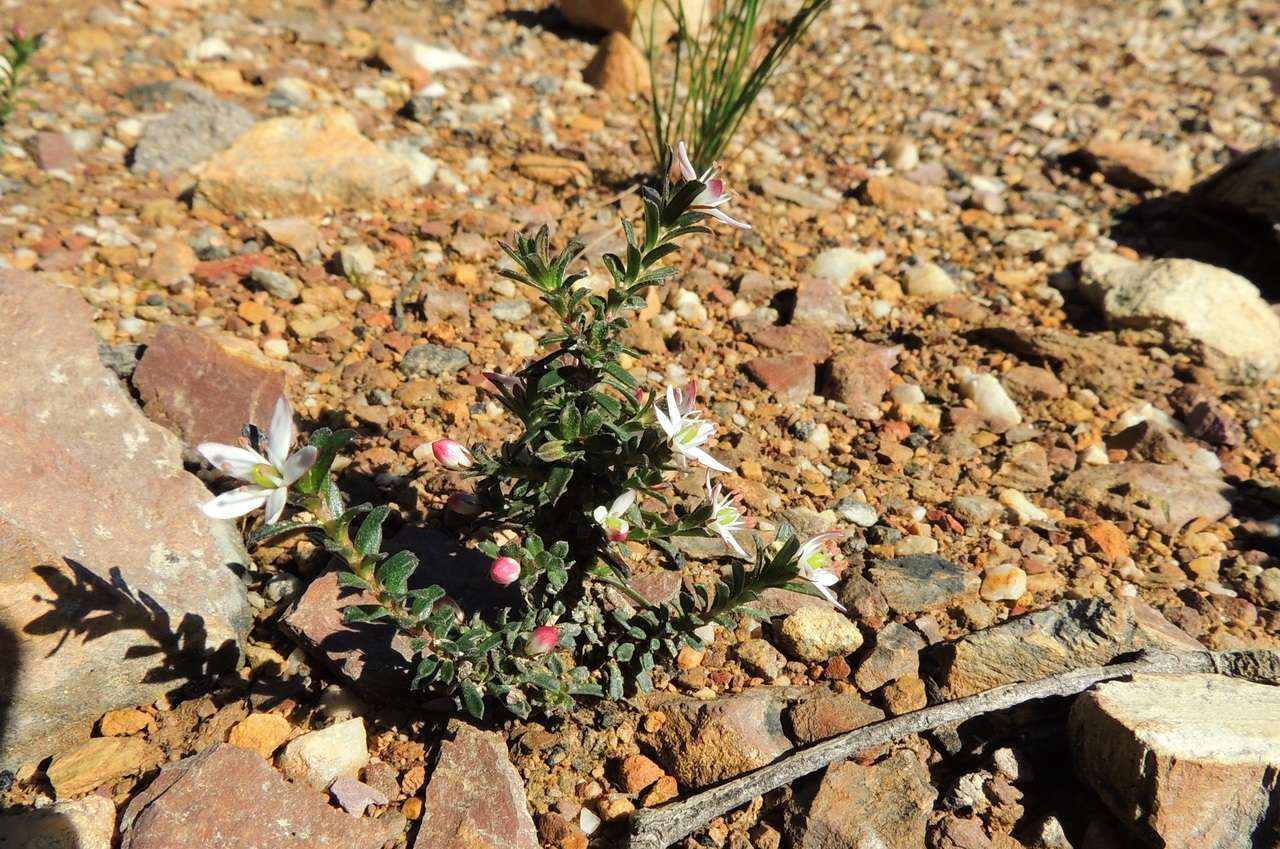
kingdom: Plantae
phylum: Tracheophyta
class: Magnoliopsida
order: Apiales
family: Pittosporaceae
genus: Rhytidosporum
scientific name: Rhytidosporum procumbens
